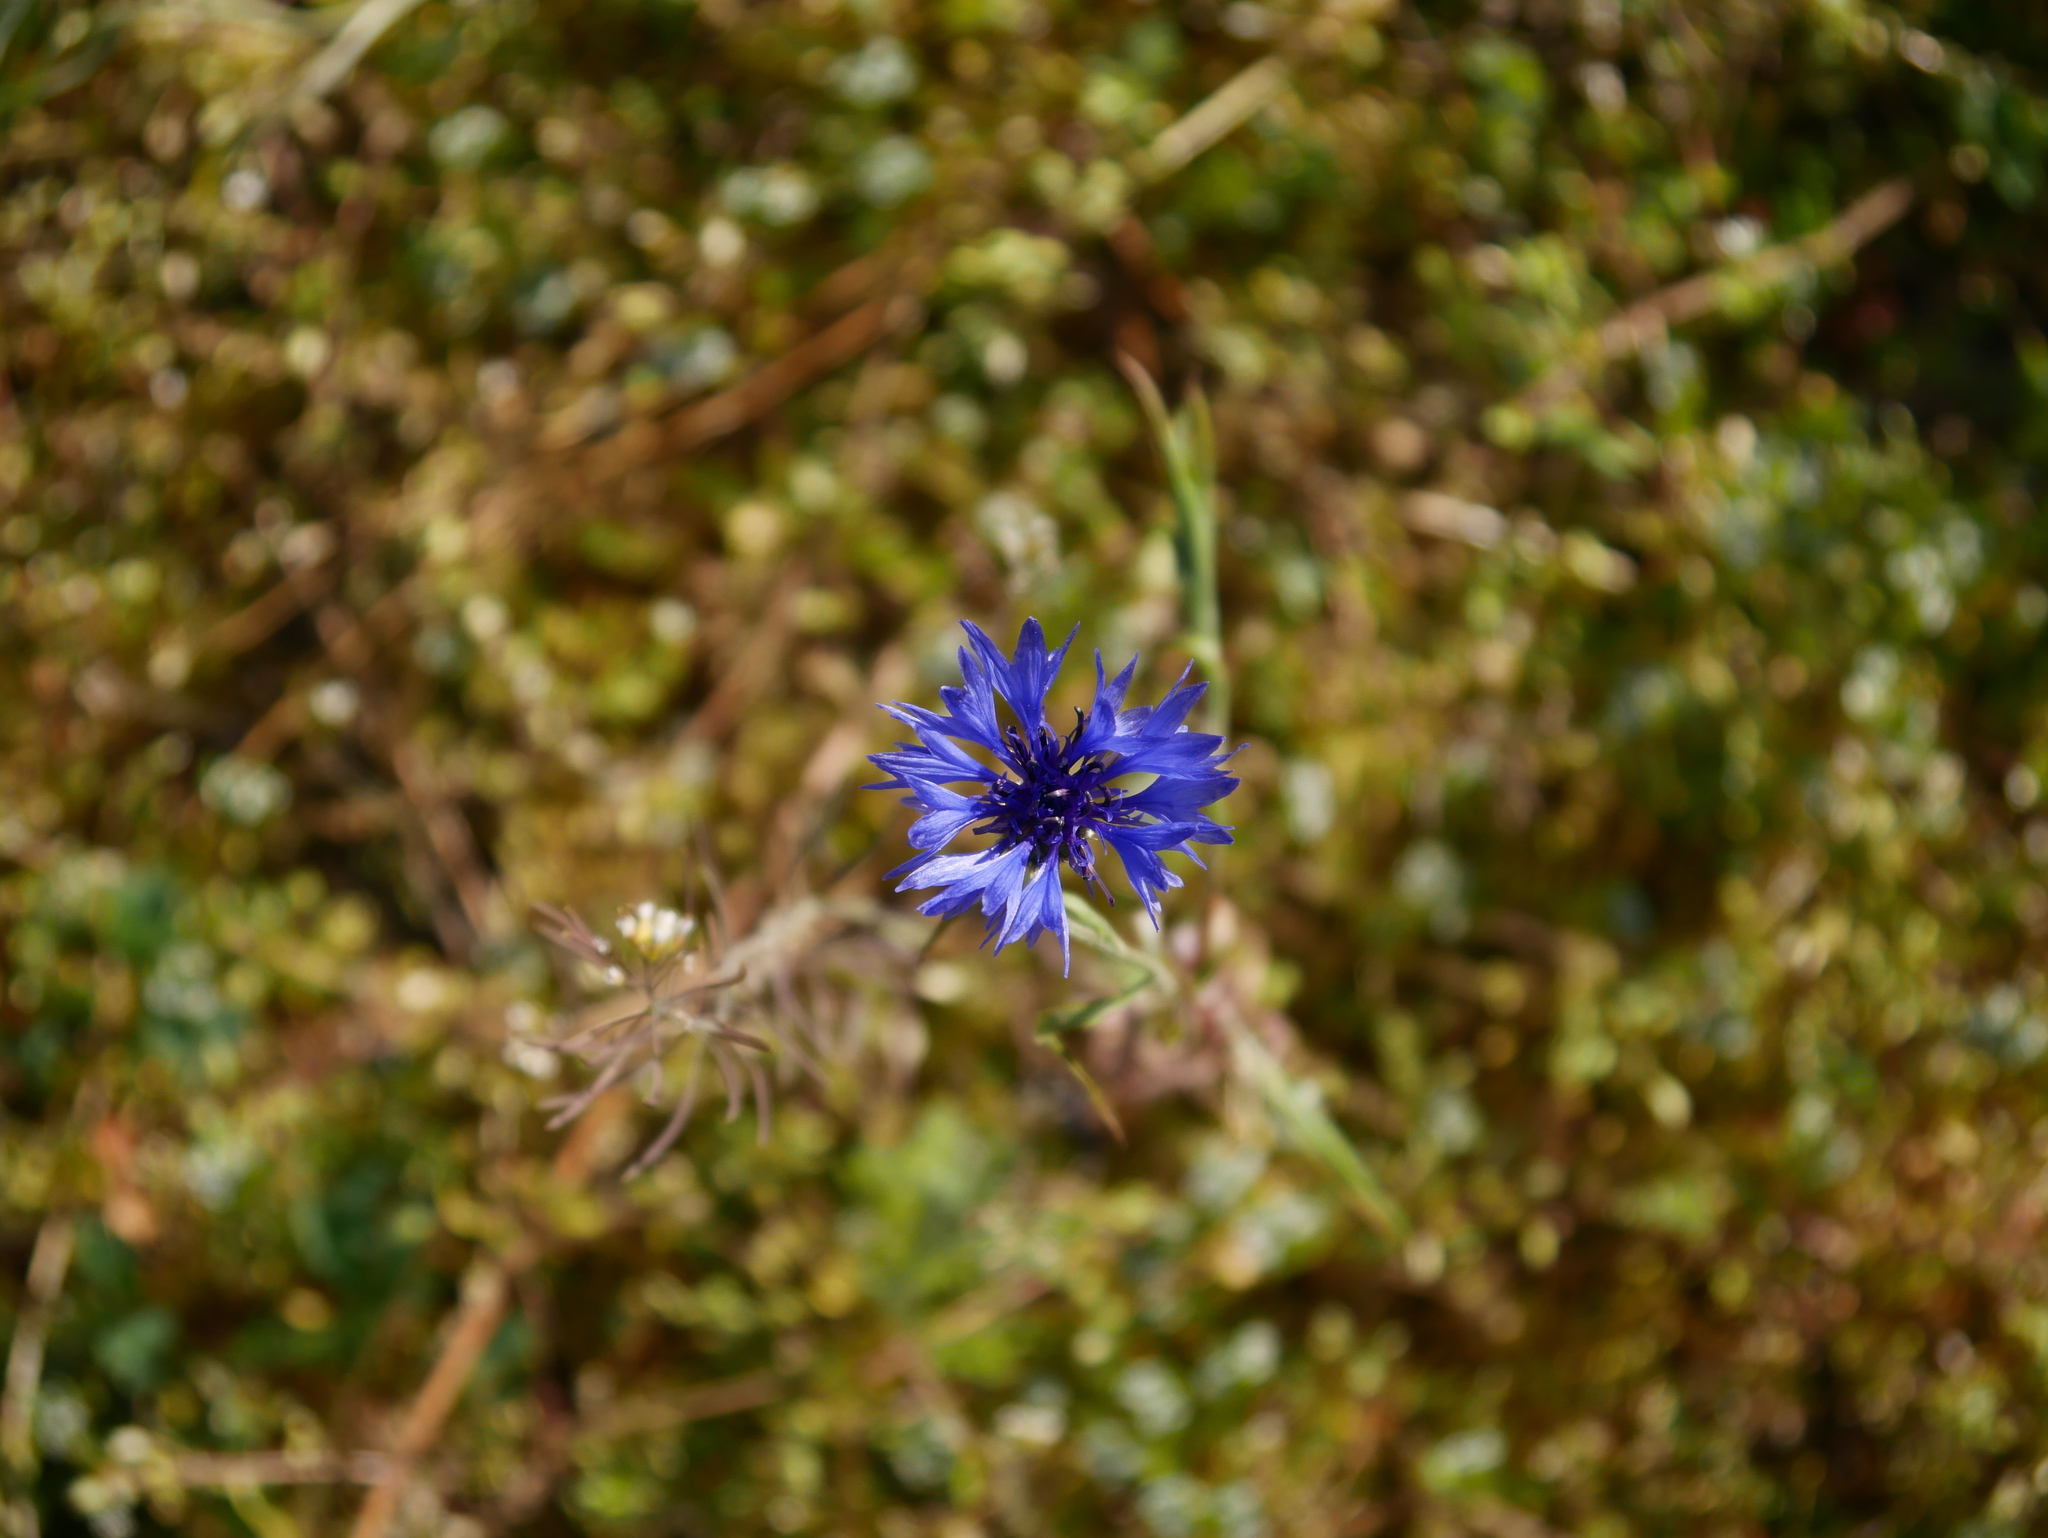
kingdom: Plantae
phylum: Tracheophyta
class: Magnoliopsida
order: Asterales
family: Asteraceae
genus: Centaurea
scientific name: Centaurea cyanus
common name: Cornflower
